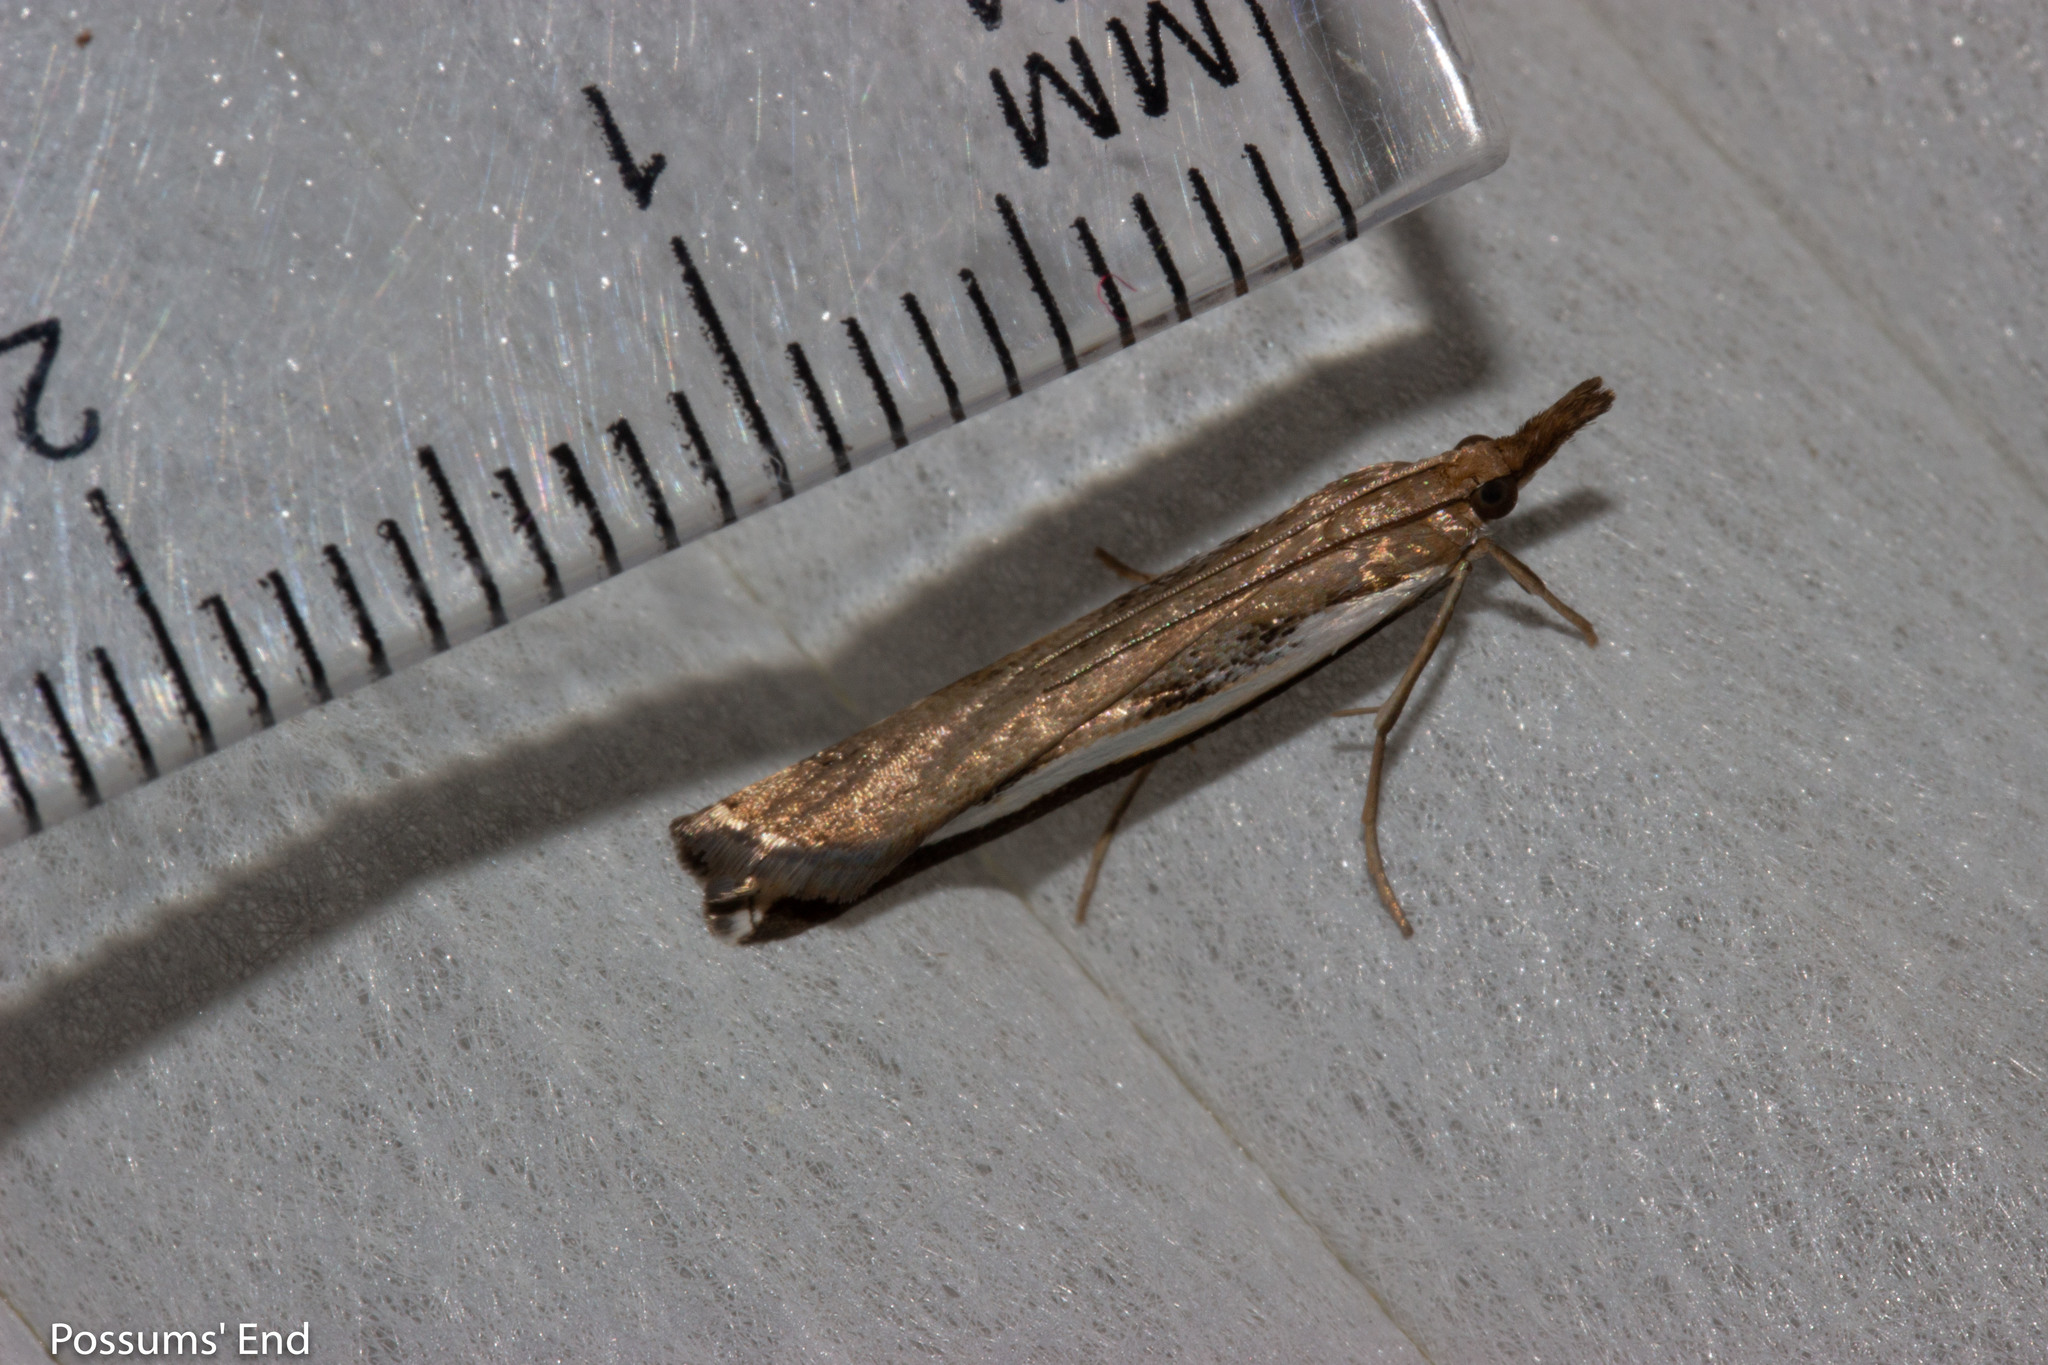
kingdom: Animalia
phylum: Arthropoda
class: Insecta
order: Lepidoptera
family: Crambidae
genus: Orocrambus
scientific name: Orocrambus flexuosellus
